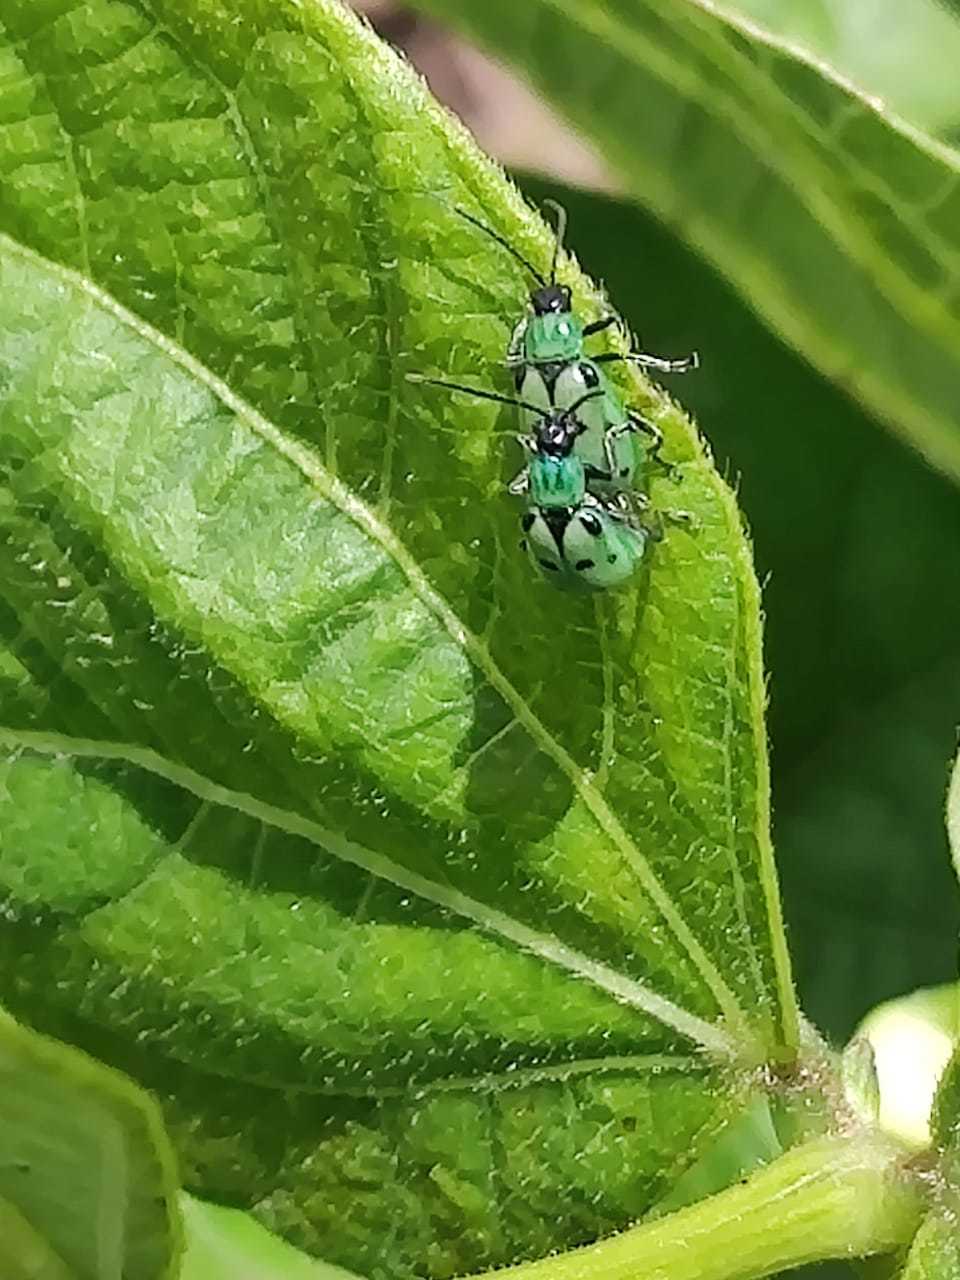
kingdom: Animalia
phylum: Arthropoda
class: Insecta
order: Coleoptera
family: Chrysomelidae
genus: Diabrotica
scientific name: Diabrotica decempunctata
